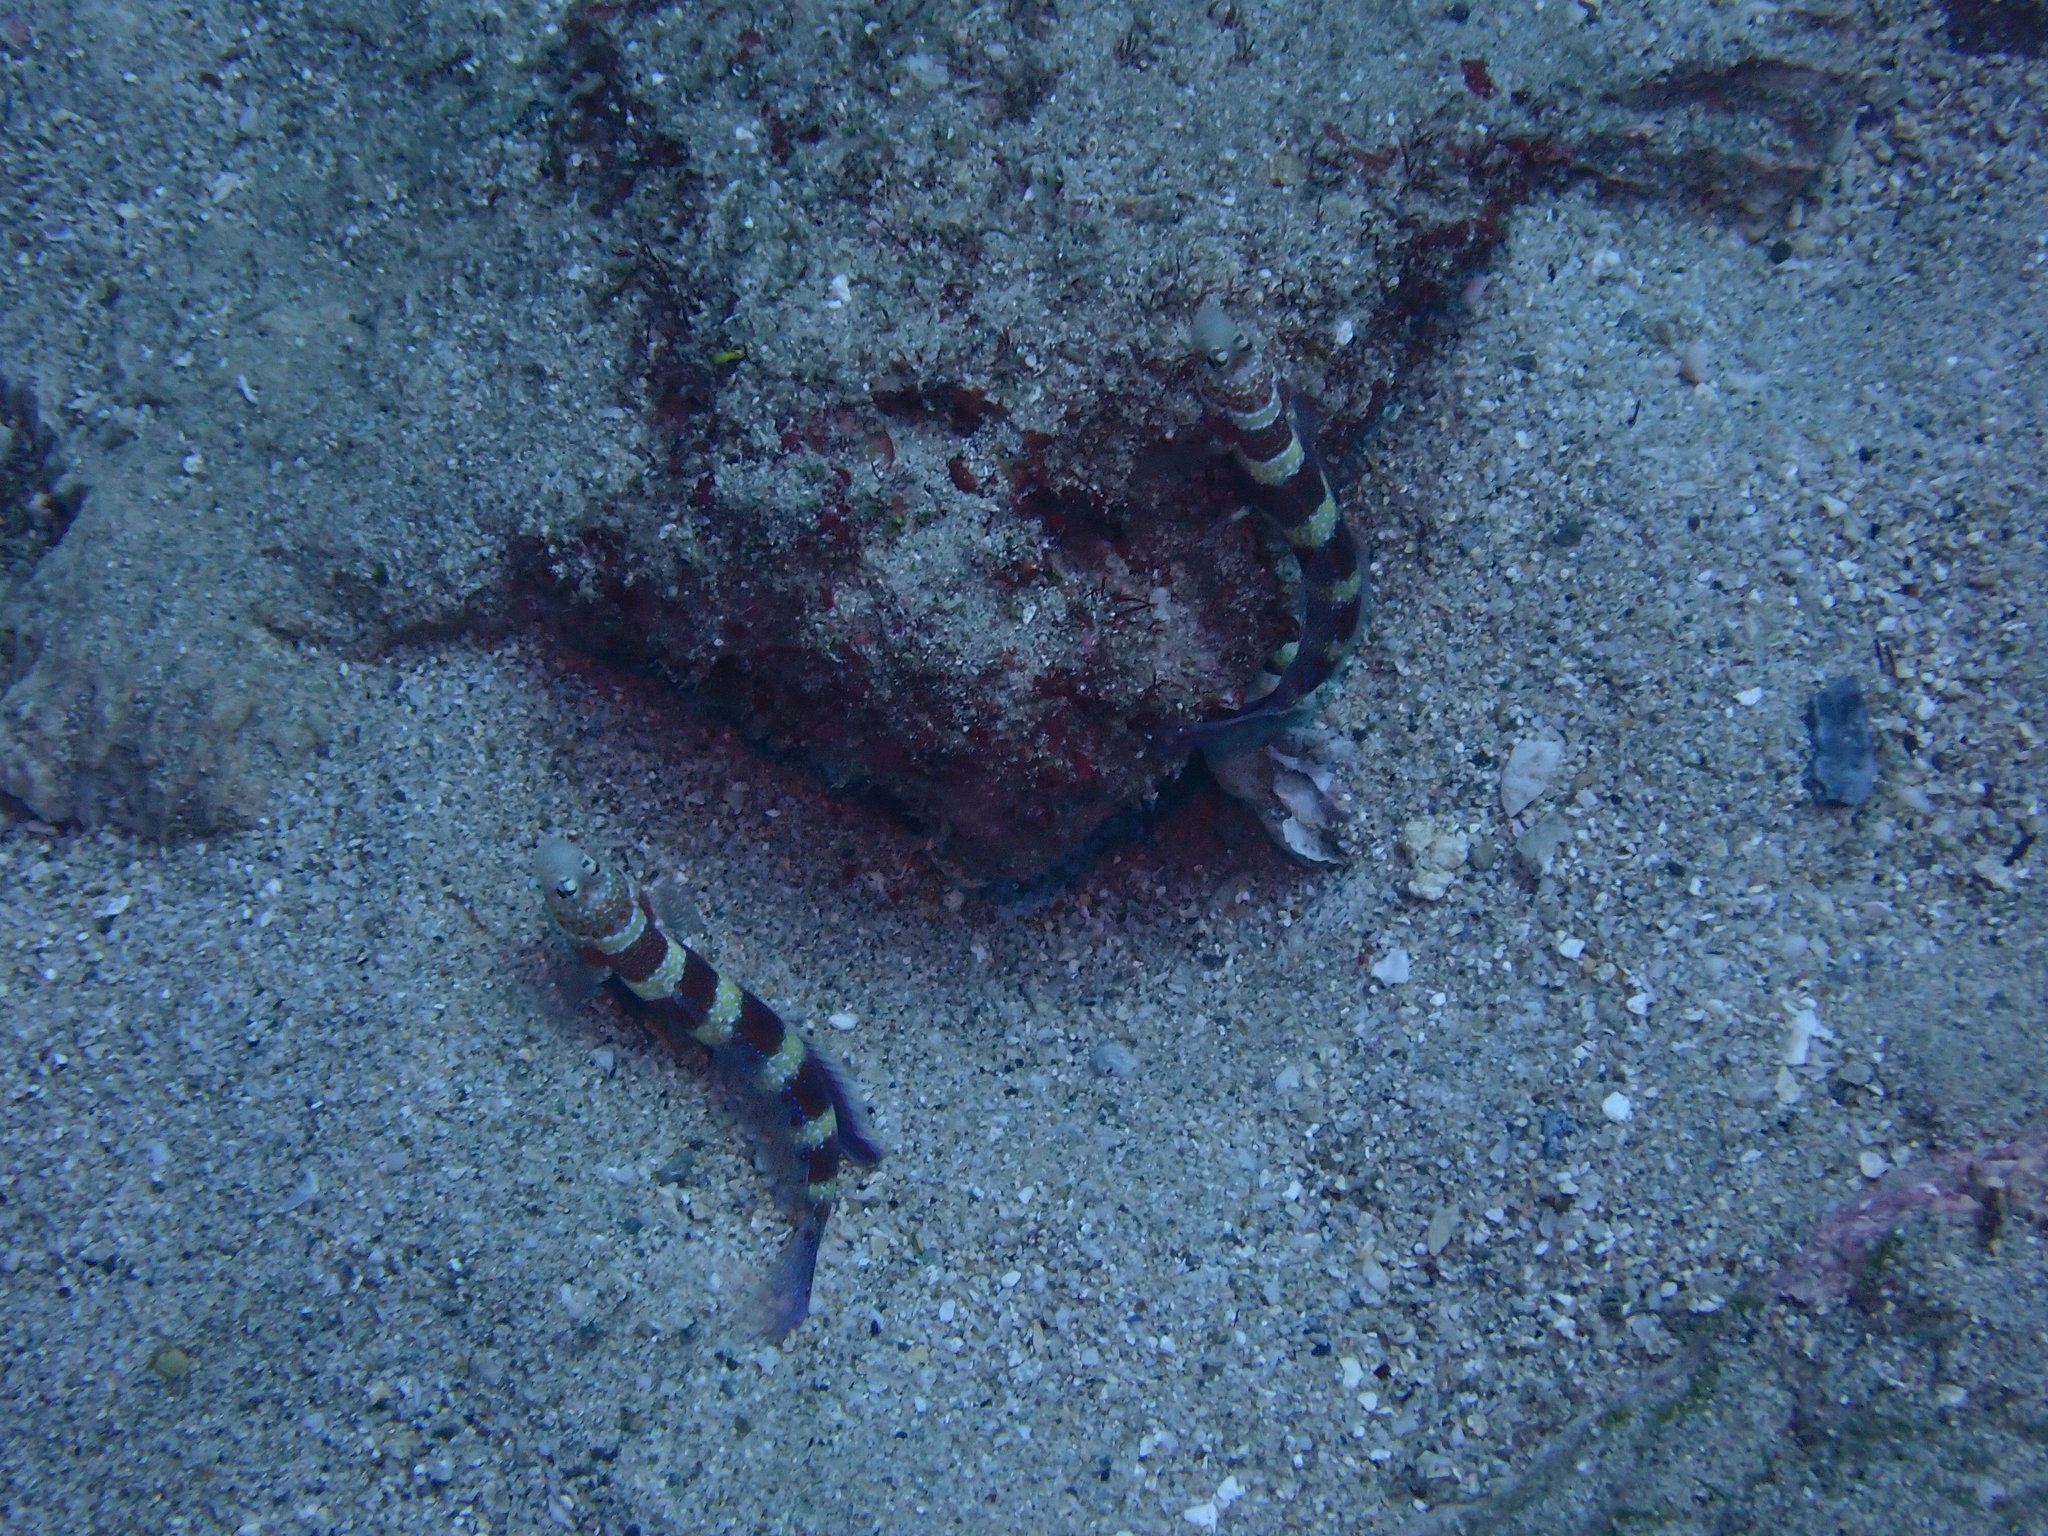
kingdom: Animalia
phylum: Chordata
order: Perciformes
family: Gobiidae
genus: Amblyeleotris
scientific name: Amblyeleotris wheeleri
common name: Gorgeous prawn-goby
